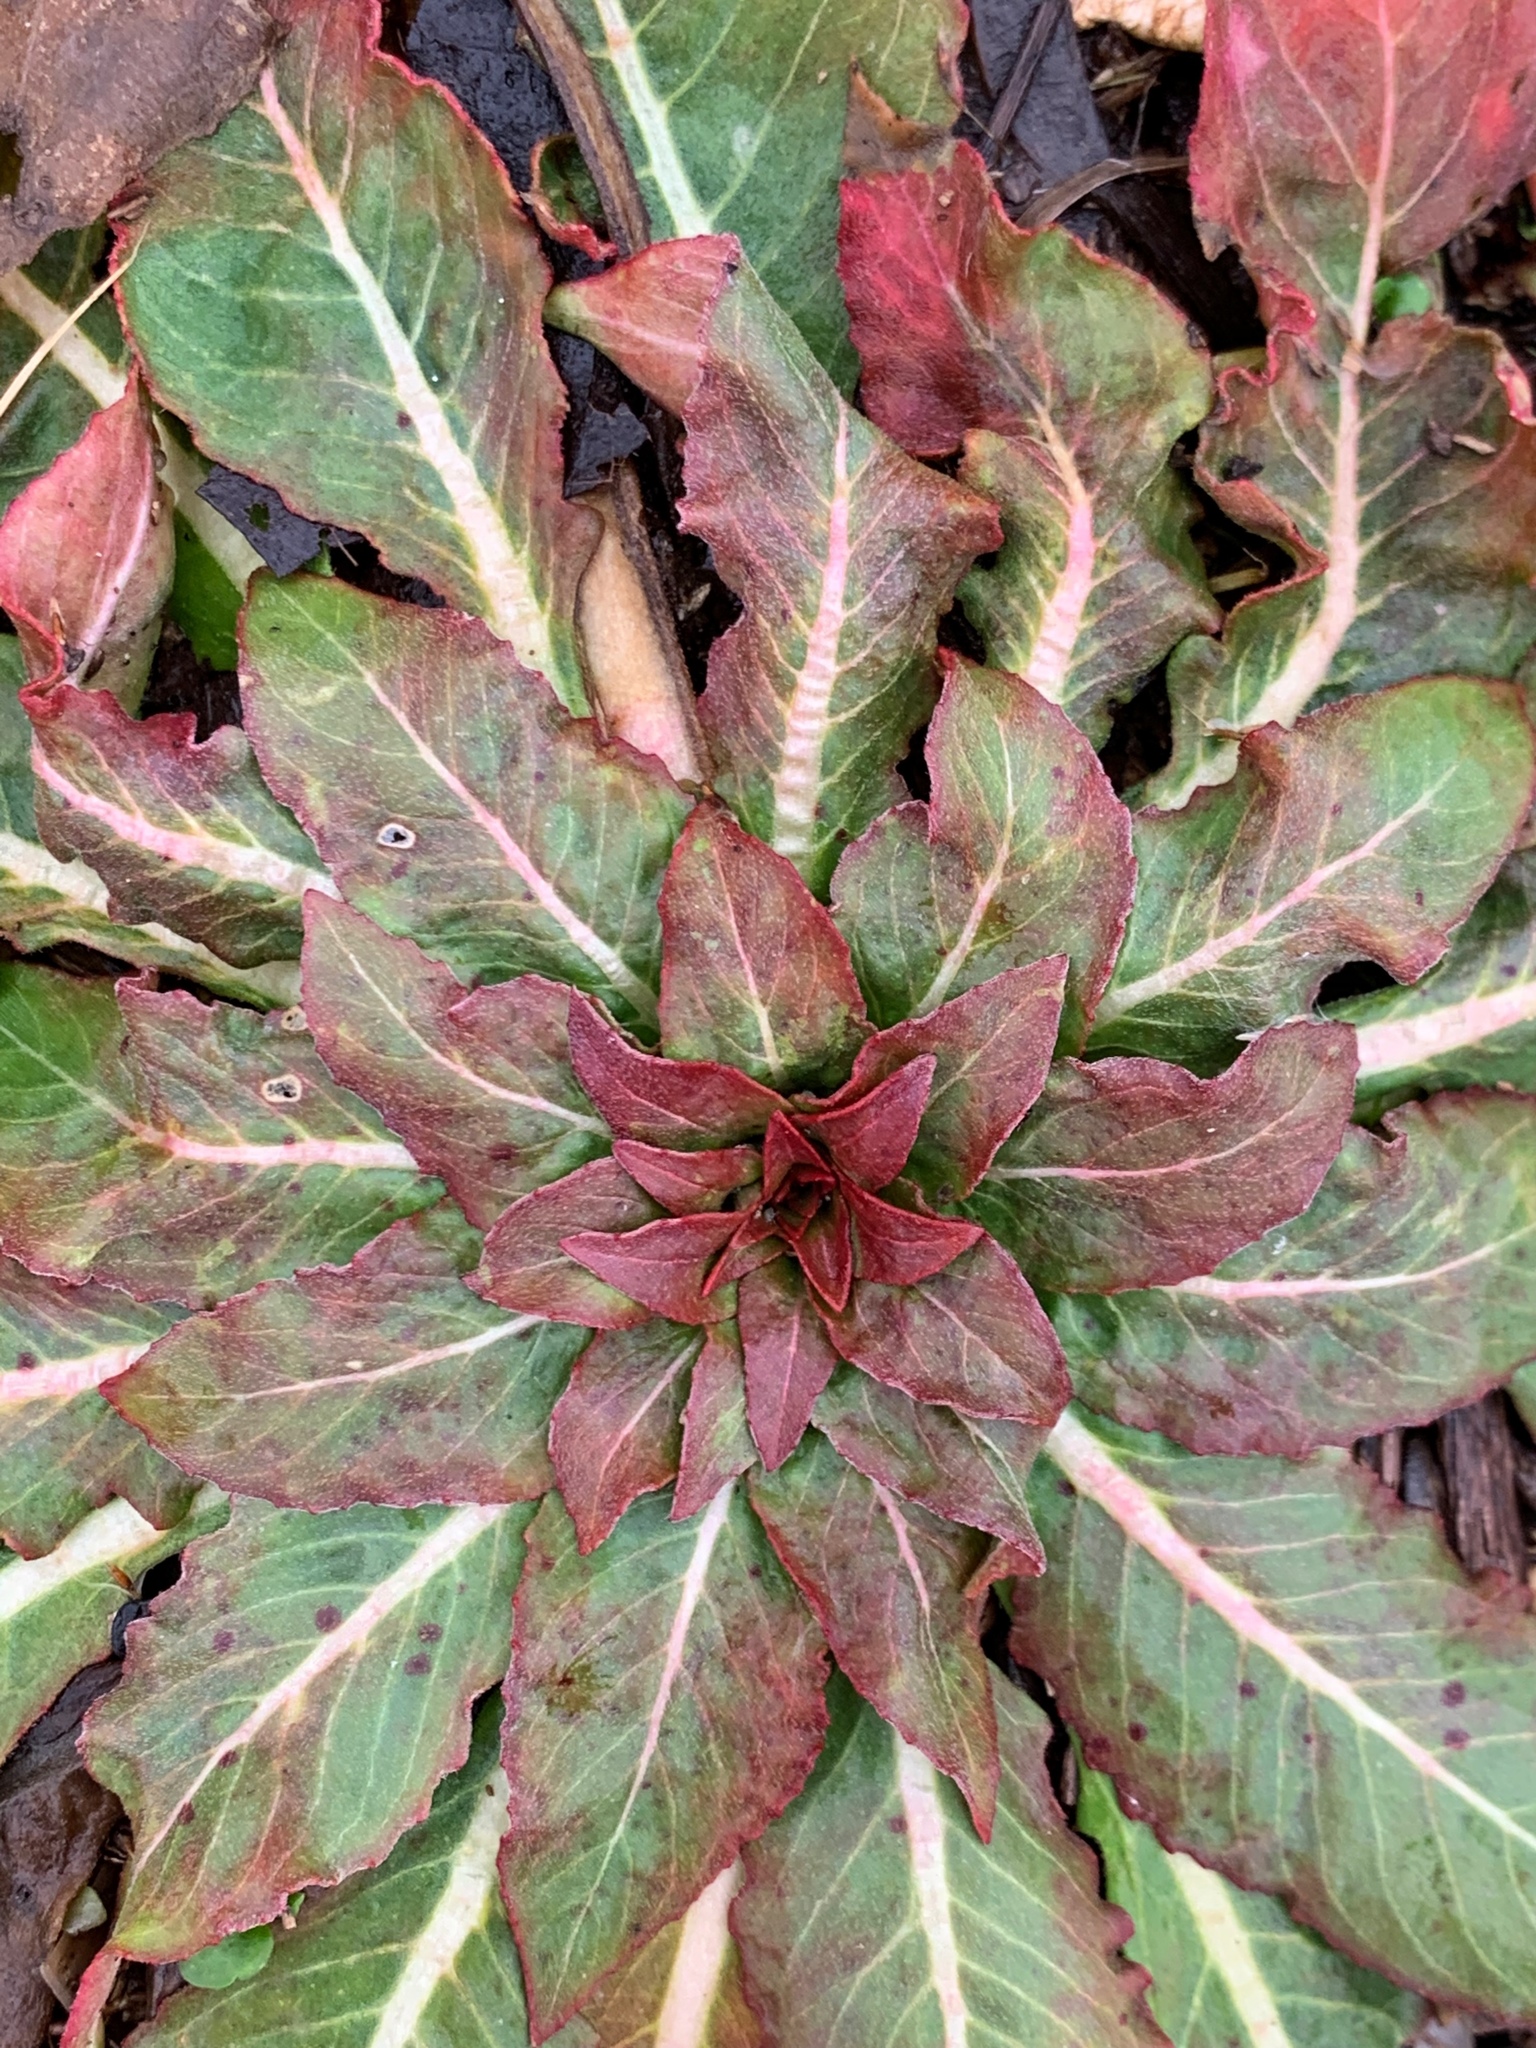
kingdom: Plantae
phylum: Tracheophyta
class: Magnoliopsida
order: Myrtales
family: Onagraceae
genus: Oenothera
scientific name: Oenothera biennis
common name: Common evening-primrose
